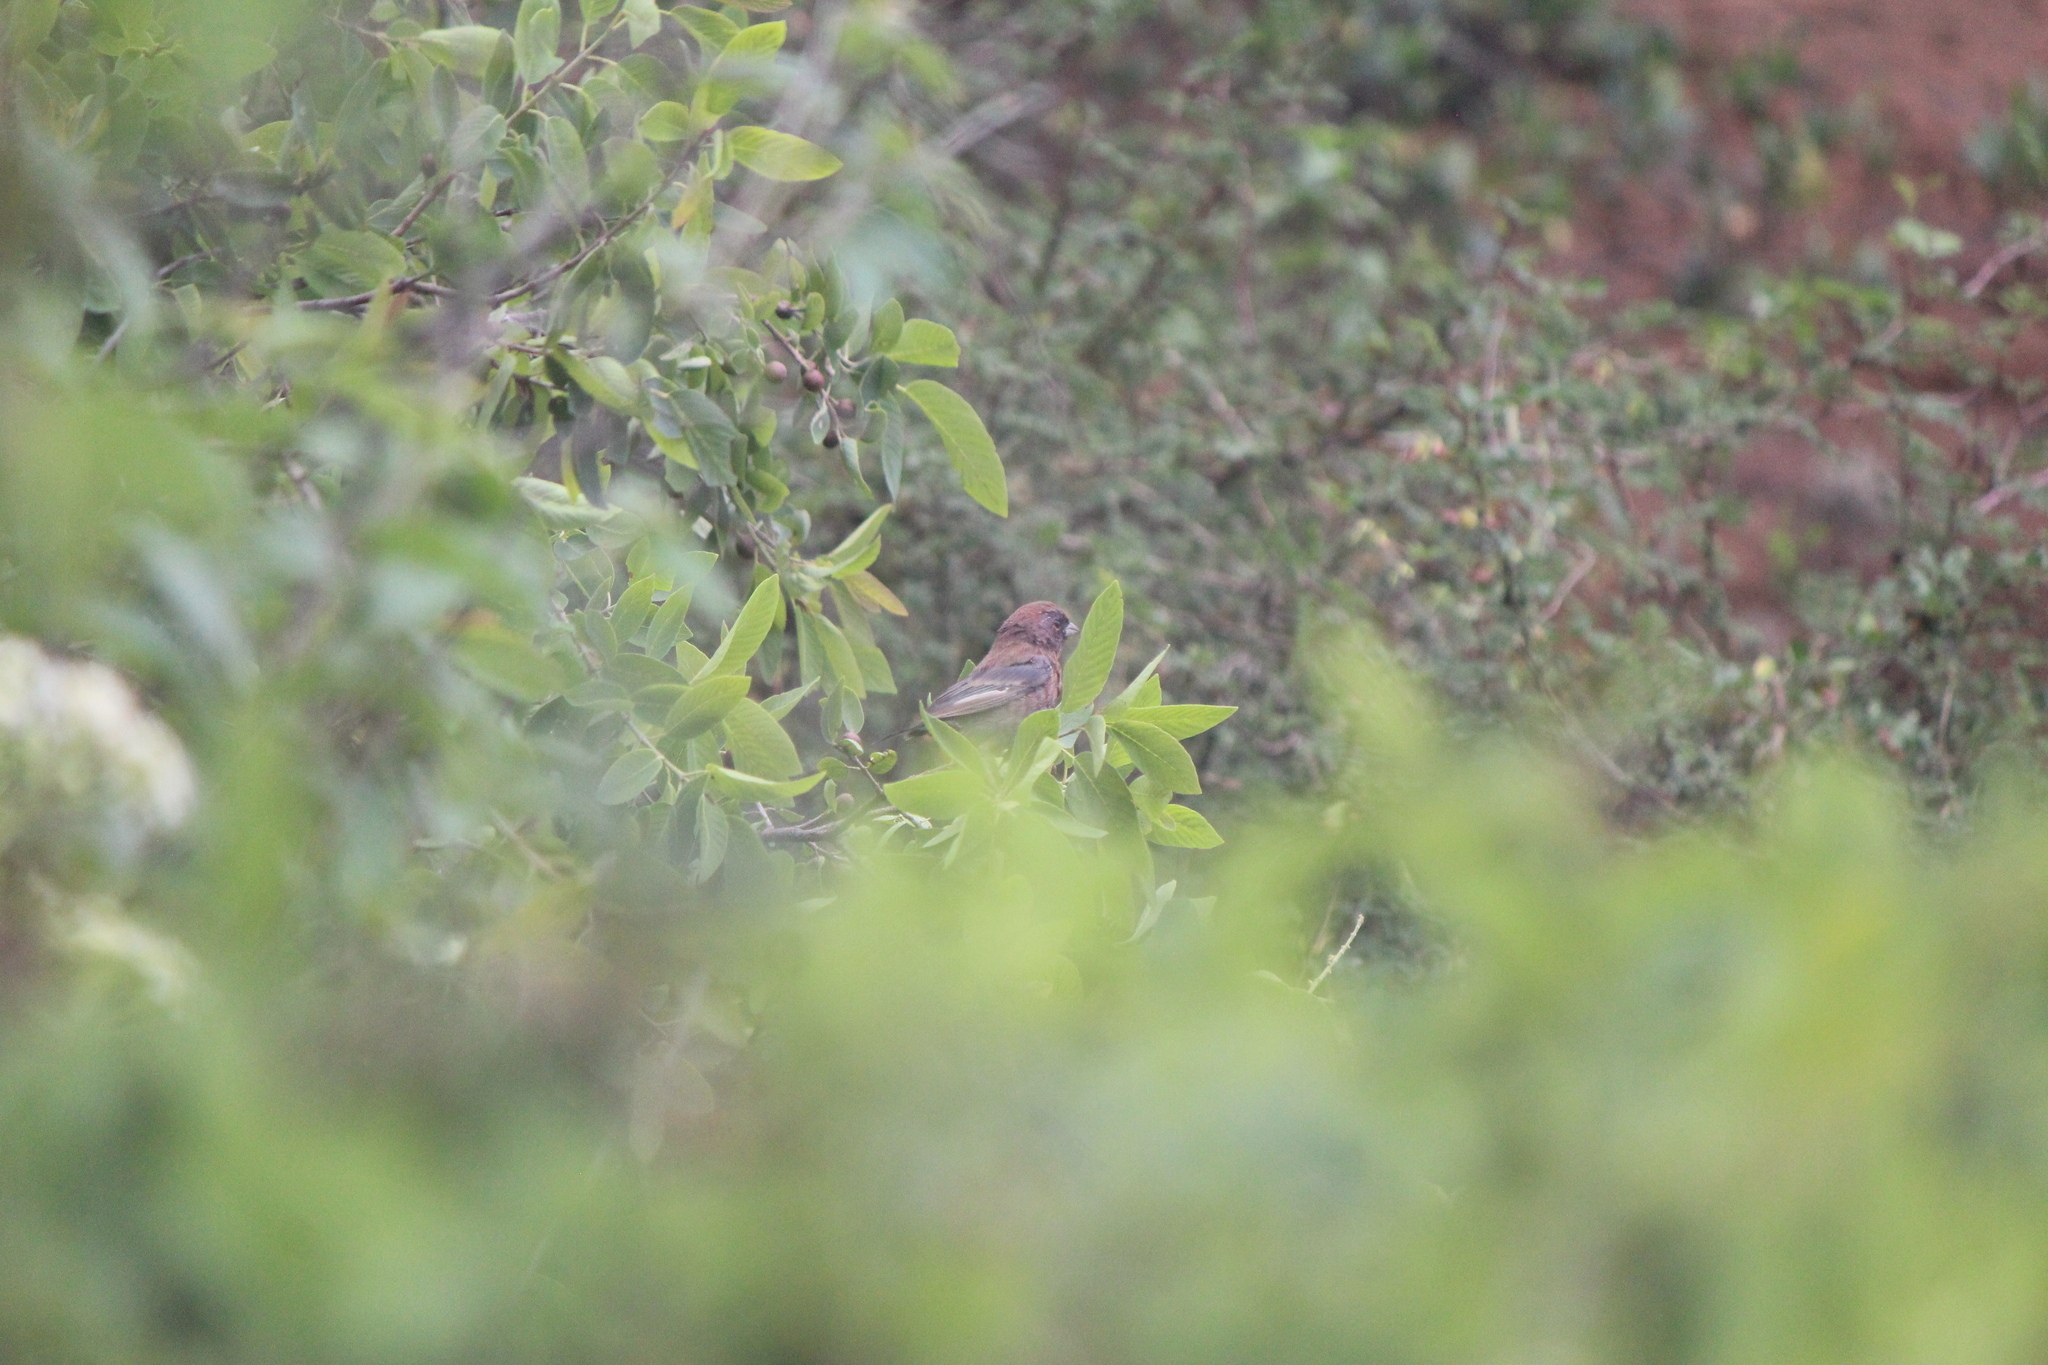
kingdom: Animalia
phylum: Chordata
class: Aves
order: Passeriformes
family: Cardinalidae
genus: Passerina
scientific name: Passerina versicolor
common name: Varied bunting
